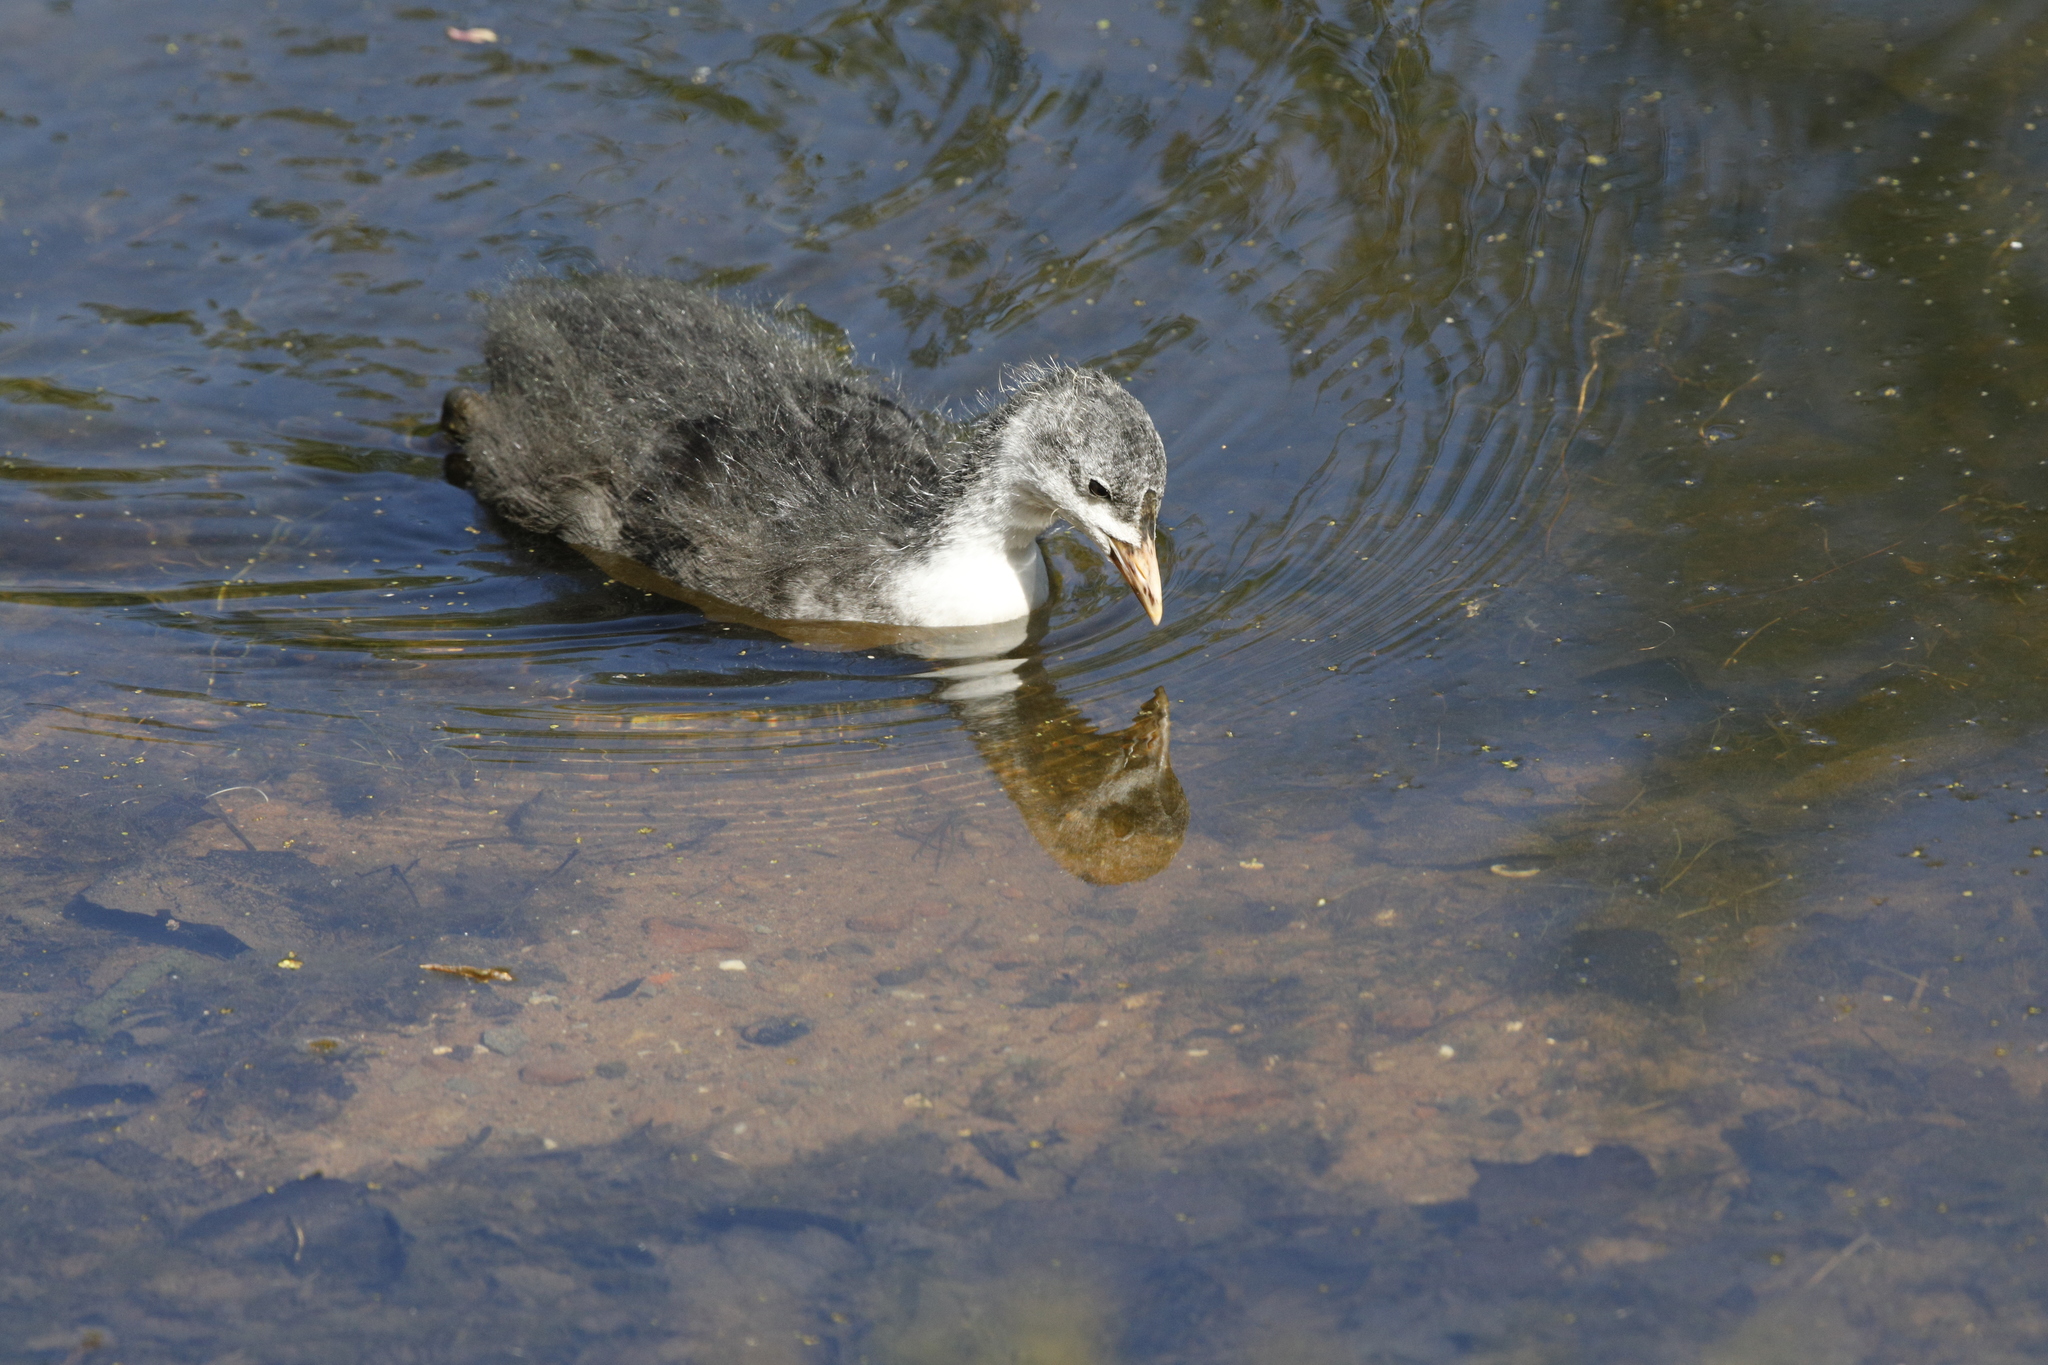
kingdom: Animalia
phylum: Chordata
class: Aves
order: Gruiformes
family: Rallidae
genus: Fulica
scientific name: Fulica atra
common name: Eurasian coot
